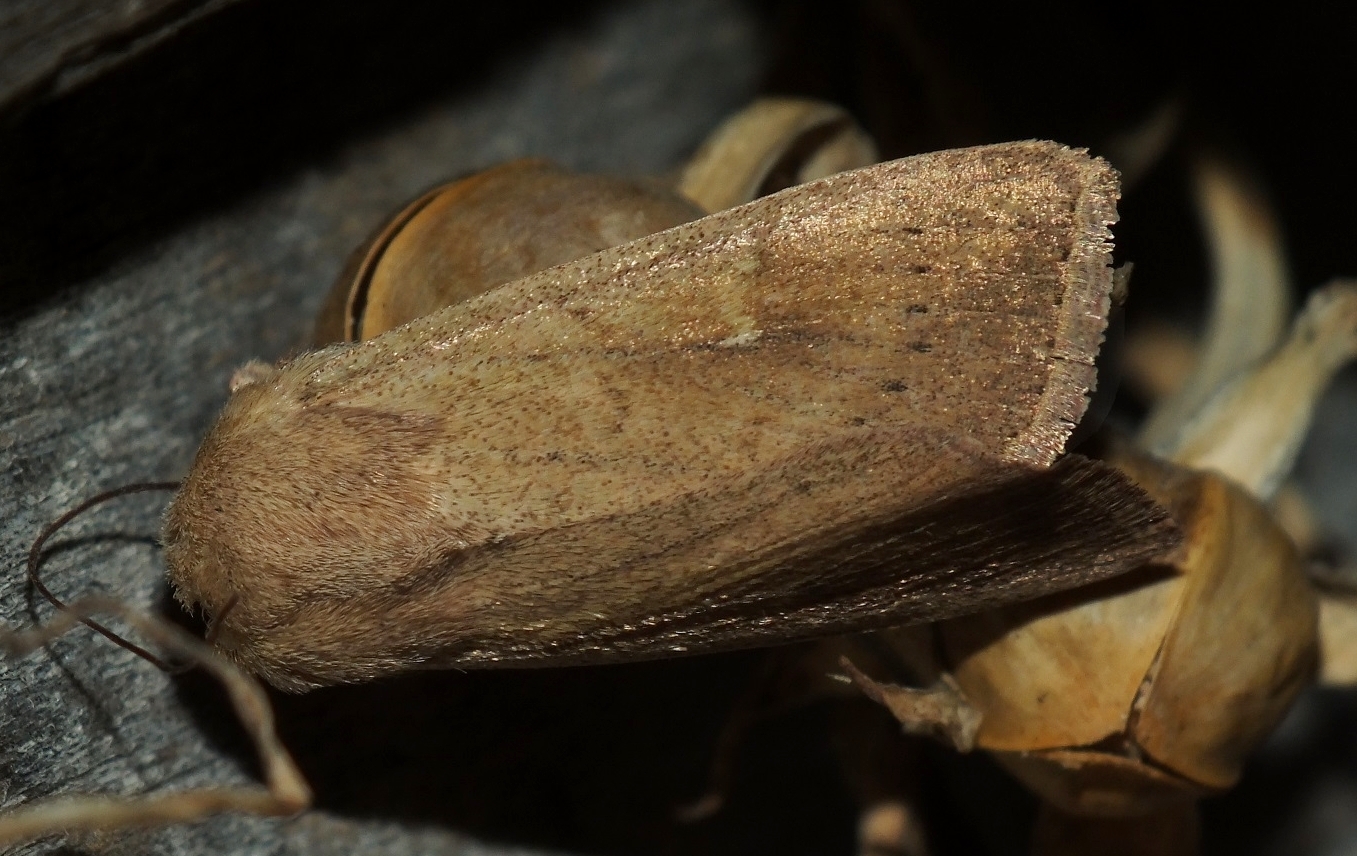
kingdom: Animalia
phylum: Arthropoda
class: Insecta
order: Lepidoptera
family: Noctuidae
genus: Mythimna
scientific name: Mythimna ferrago
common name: Clay
